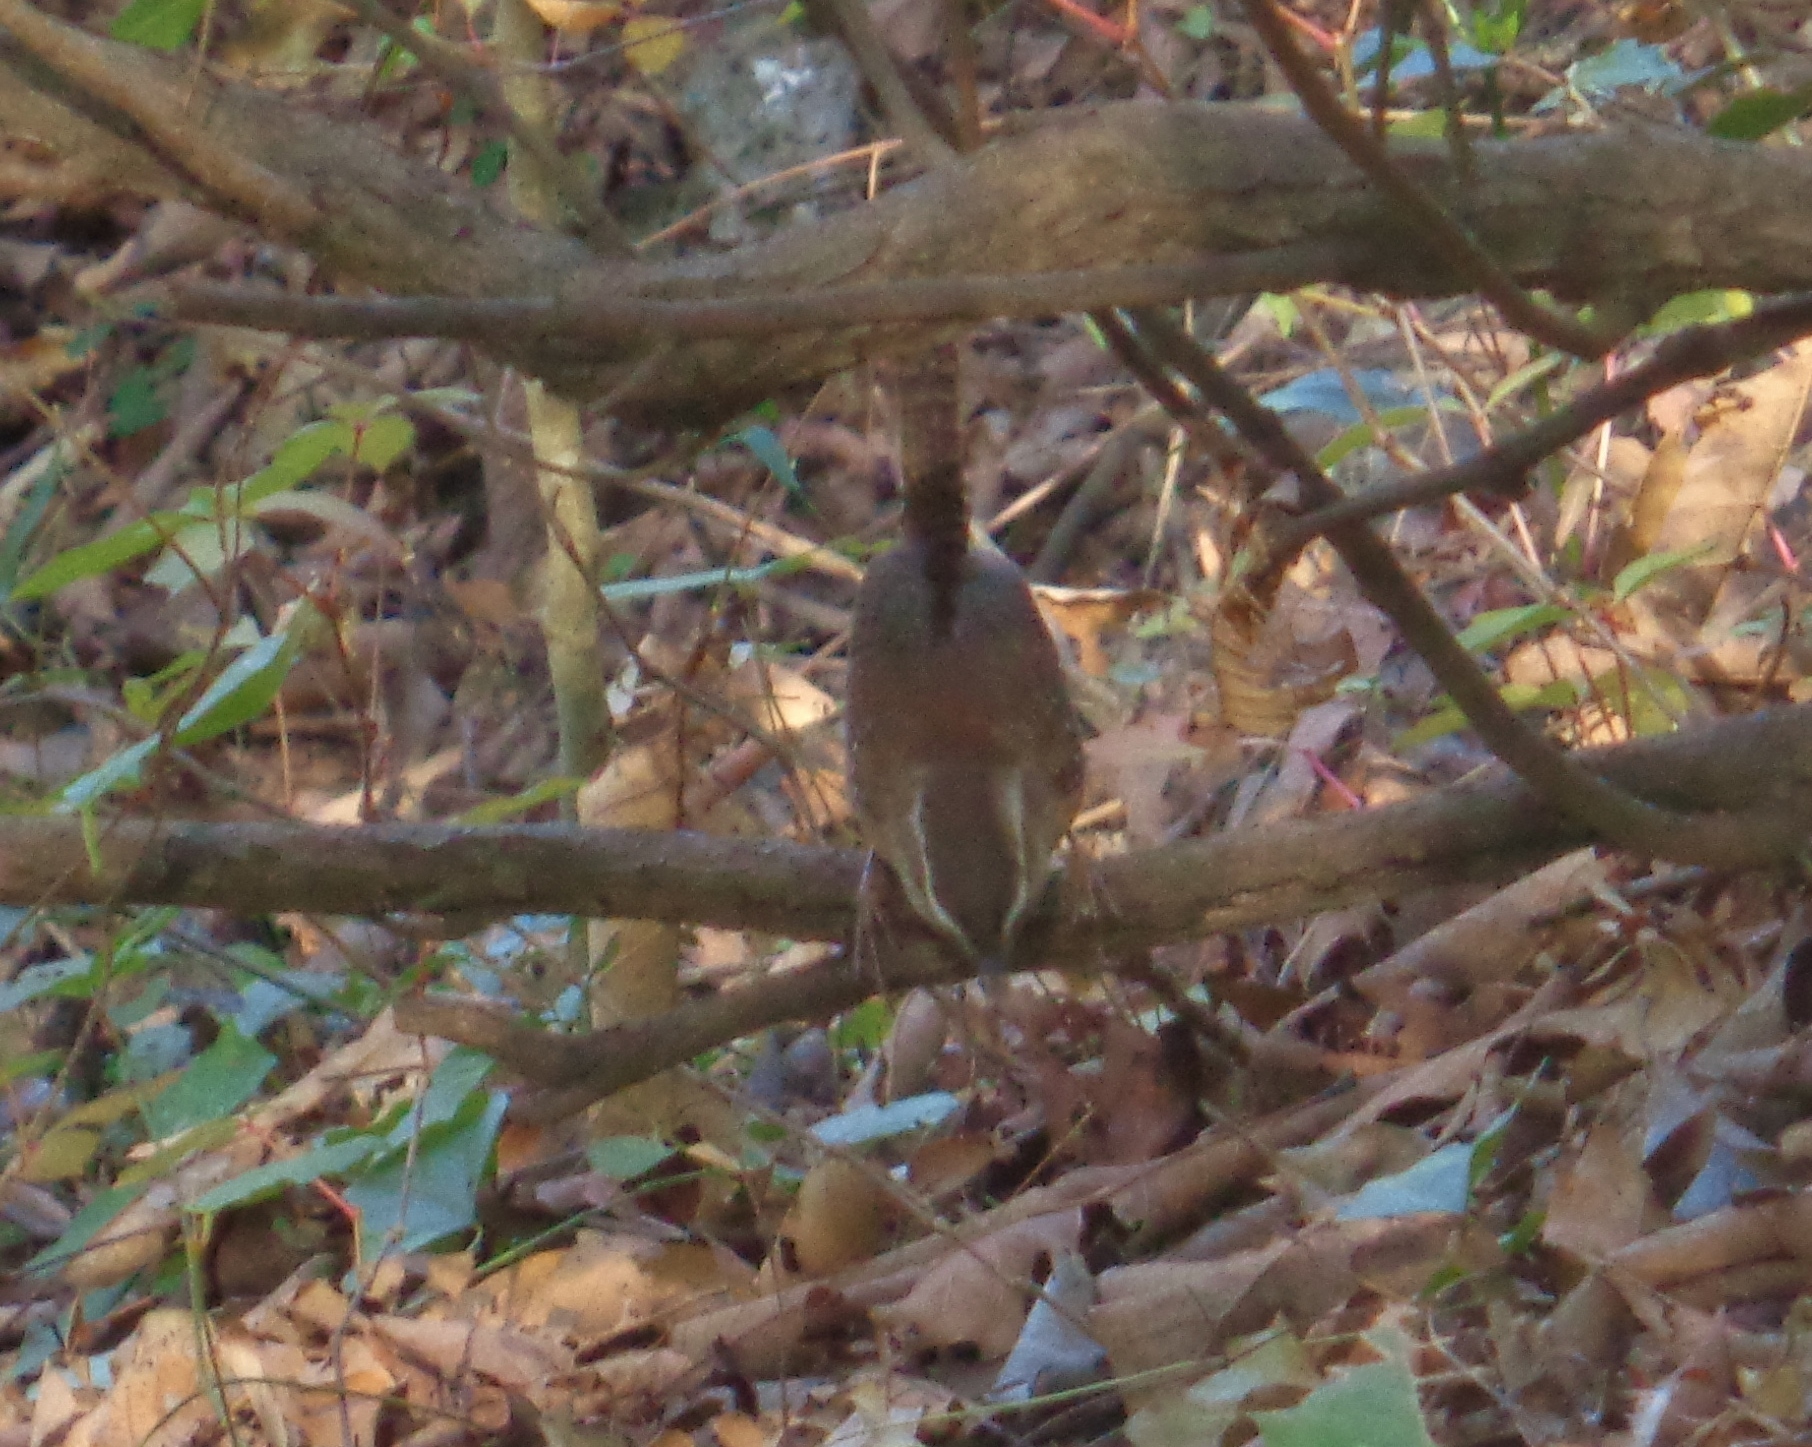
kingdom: Animalia
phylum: Chordata
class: Aves
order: Passeriformes
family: Parulidae
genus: Basileuterus
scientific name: Basileuterus rufifrons
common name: Rufous-capped warbler
